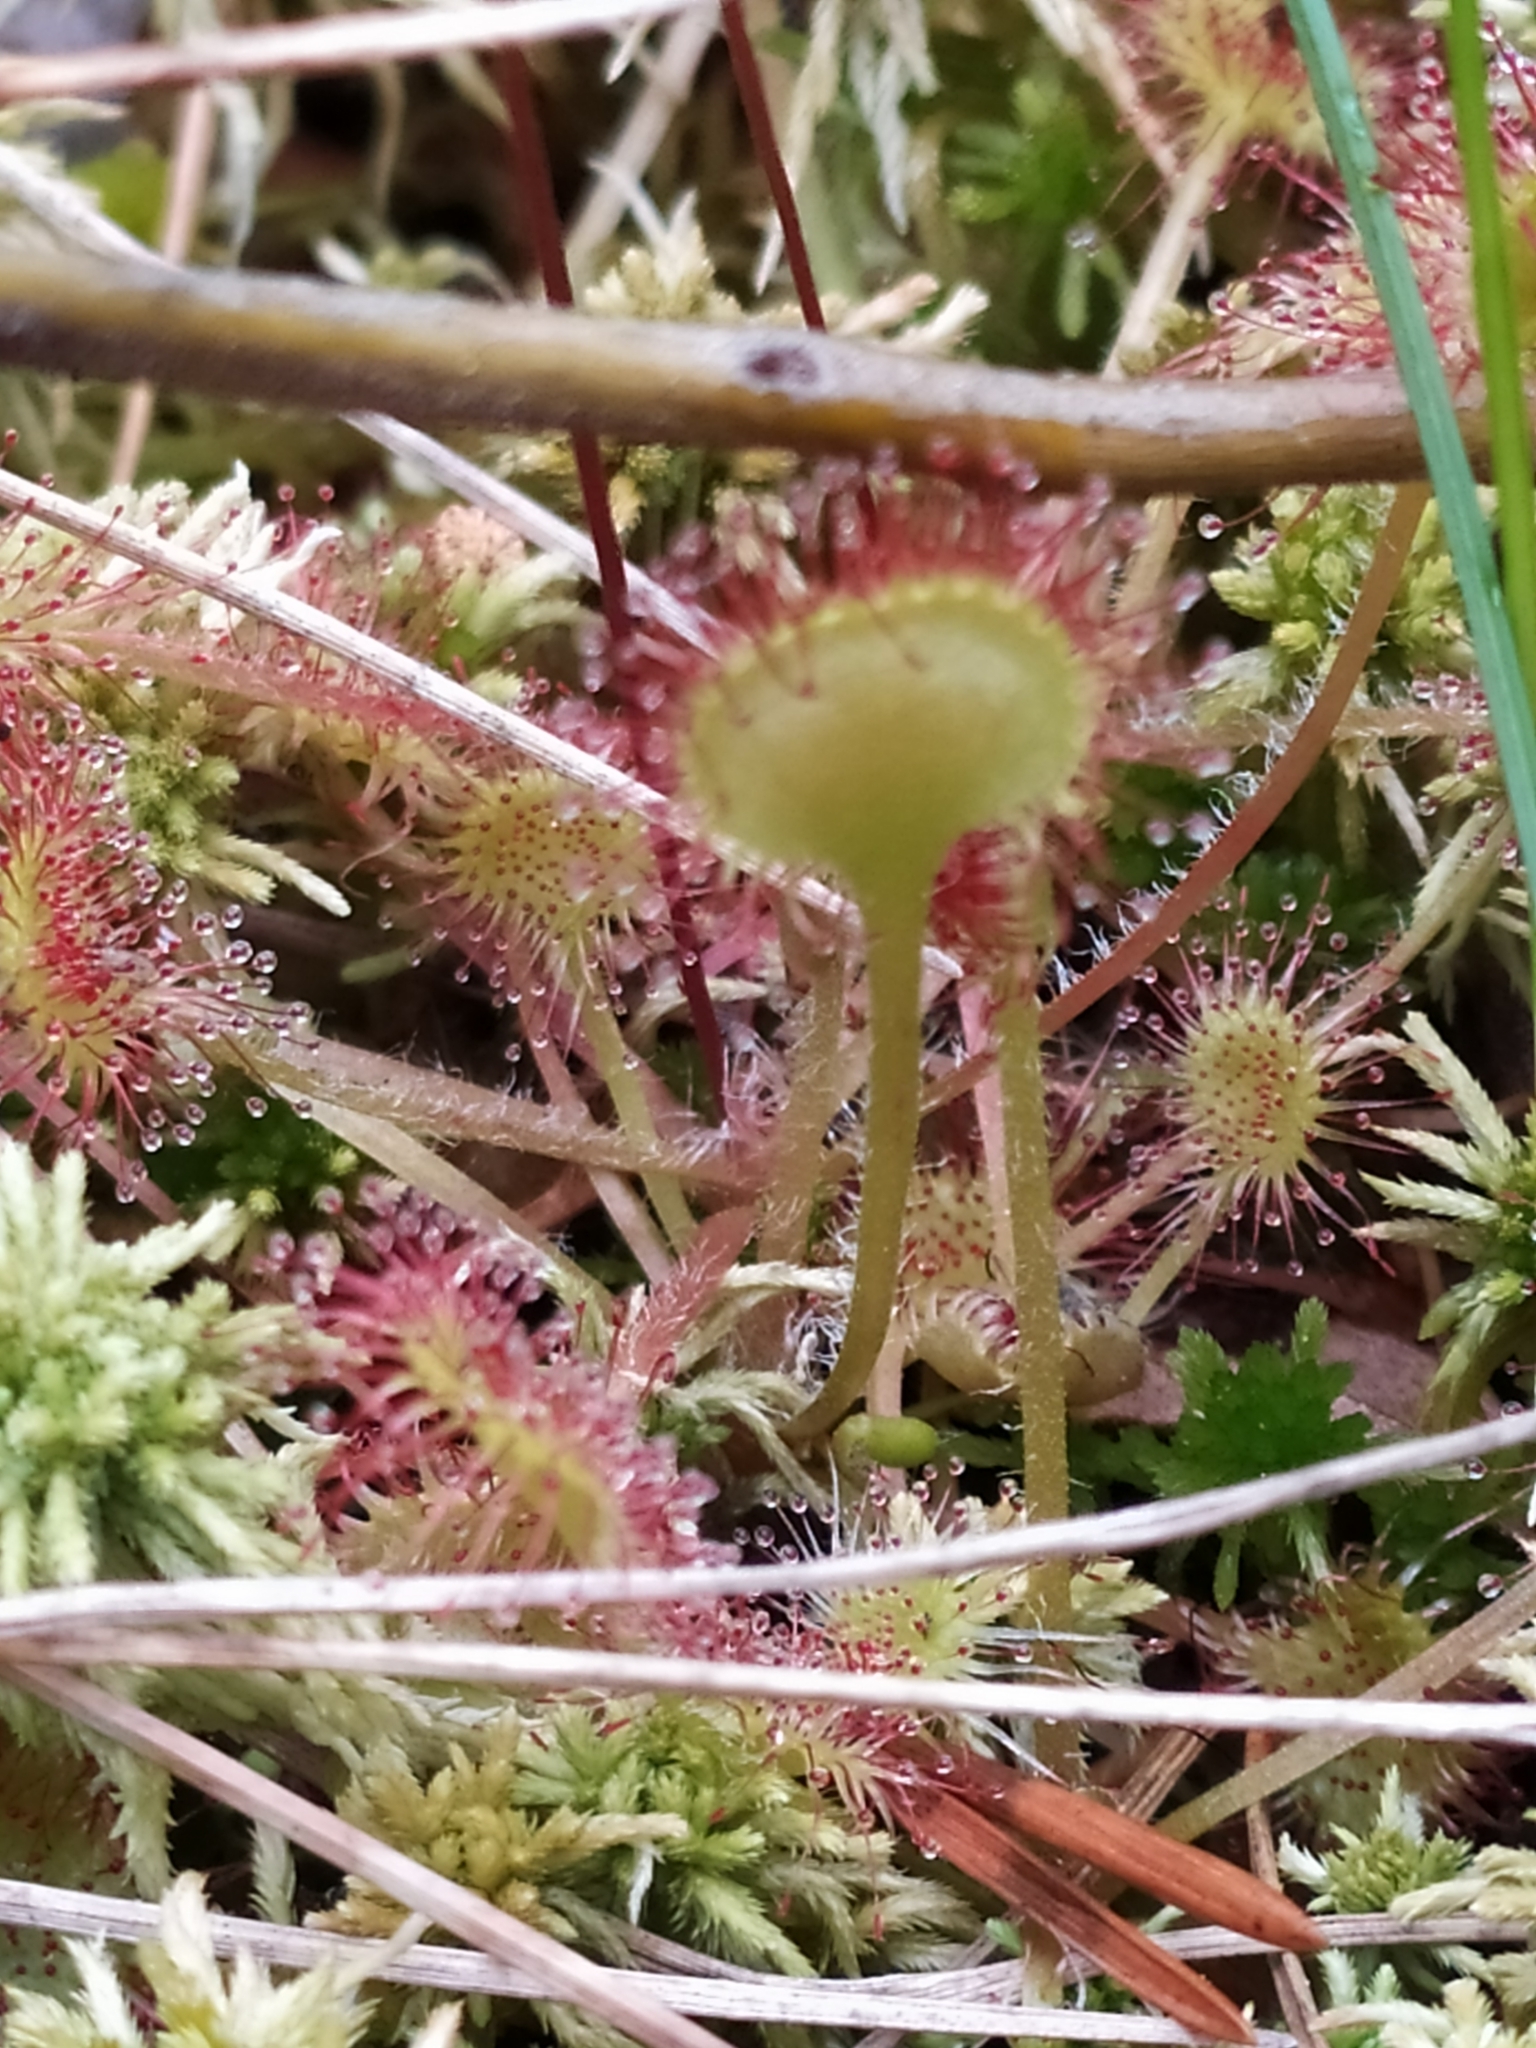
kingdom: Plantae
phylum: Tracheophyta
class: Magnoliopsida
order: Caryophyllales
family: Droseraceae
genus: Drosera
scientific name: Drosera rotundifolia
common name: Round-leaved sundew
